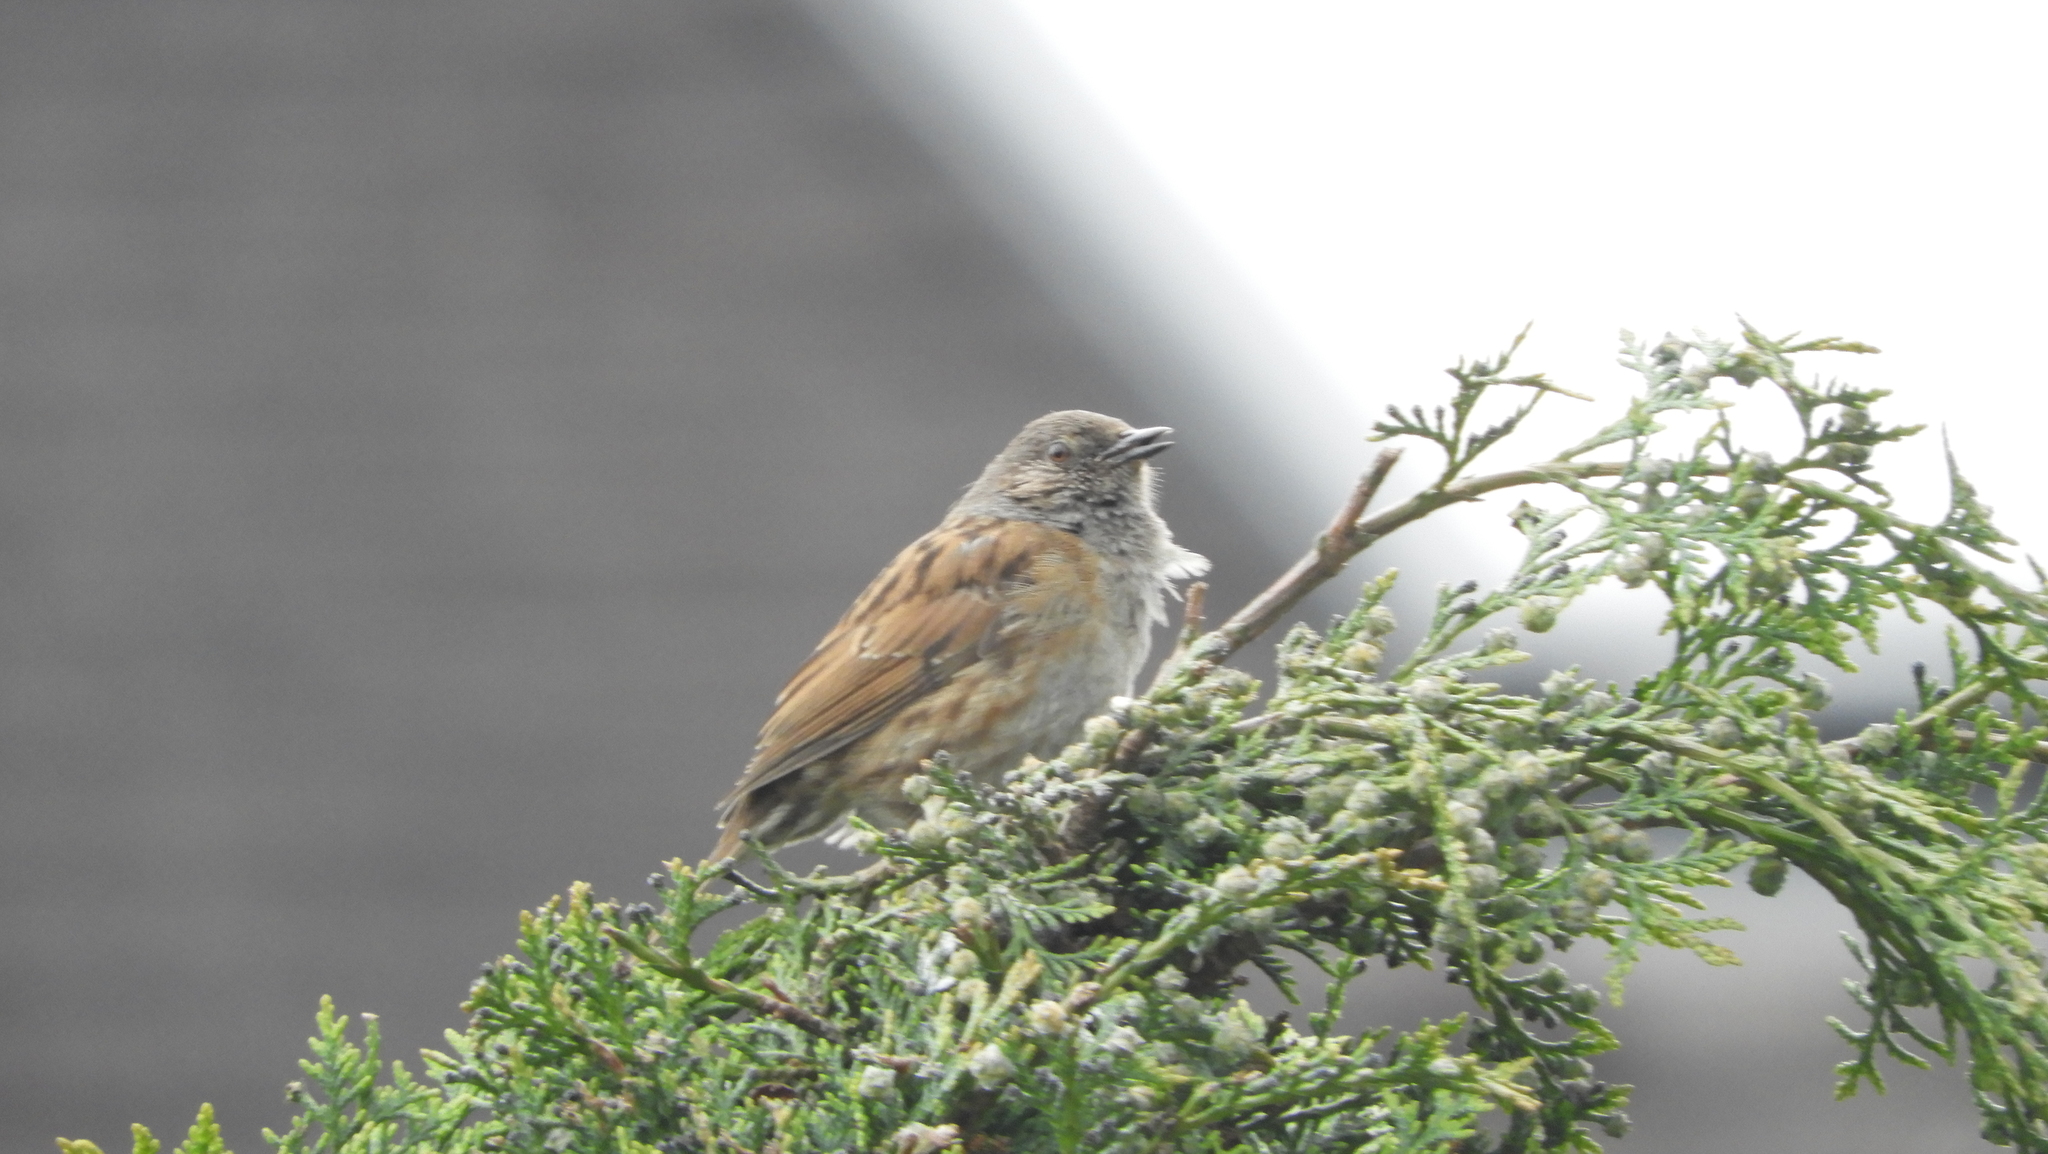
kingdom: Animalia
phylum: Chordata
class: Aves
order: Passeriformes
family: Prunellidae
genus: Prunella
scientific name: Prunella modularis
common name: Dunnock
